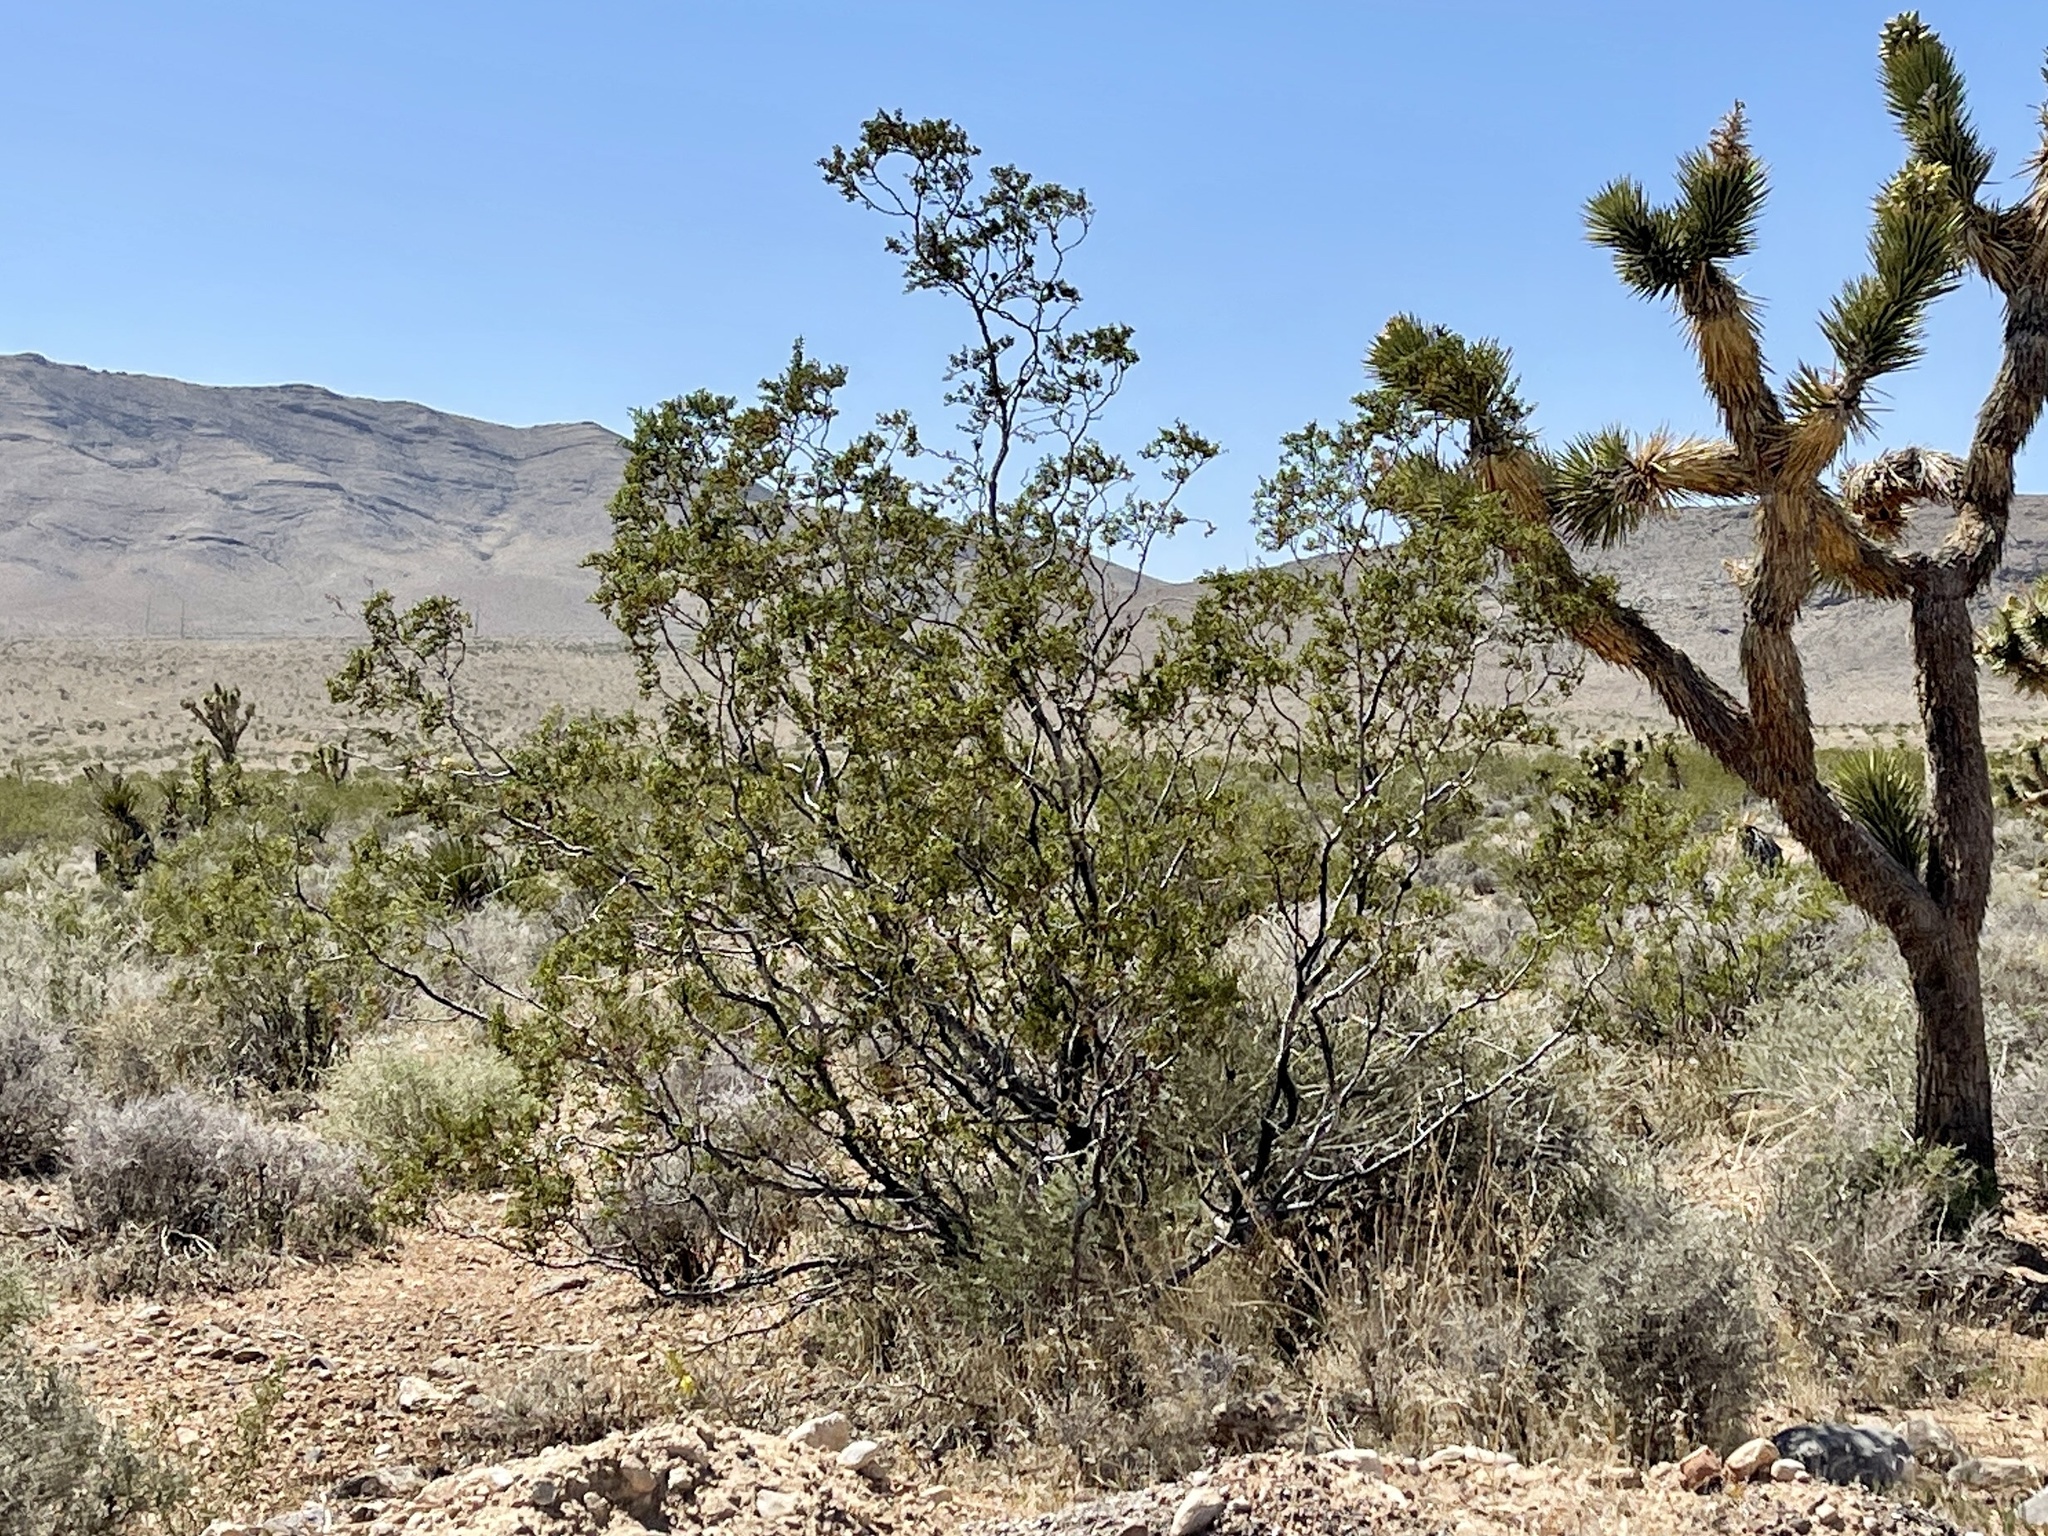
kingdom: Plantae
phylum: Tracheophyta
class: Magnoliopsida
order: Zygophyllales
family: Zygophyllaceae
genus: Larrea
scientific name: Larrea tridentata
